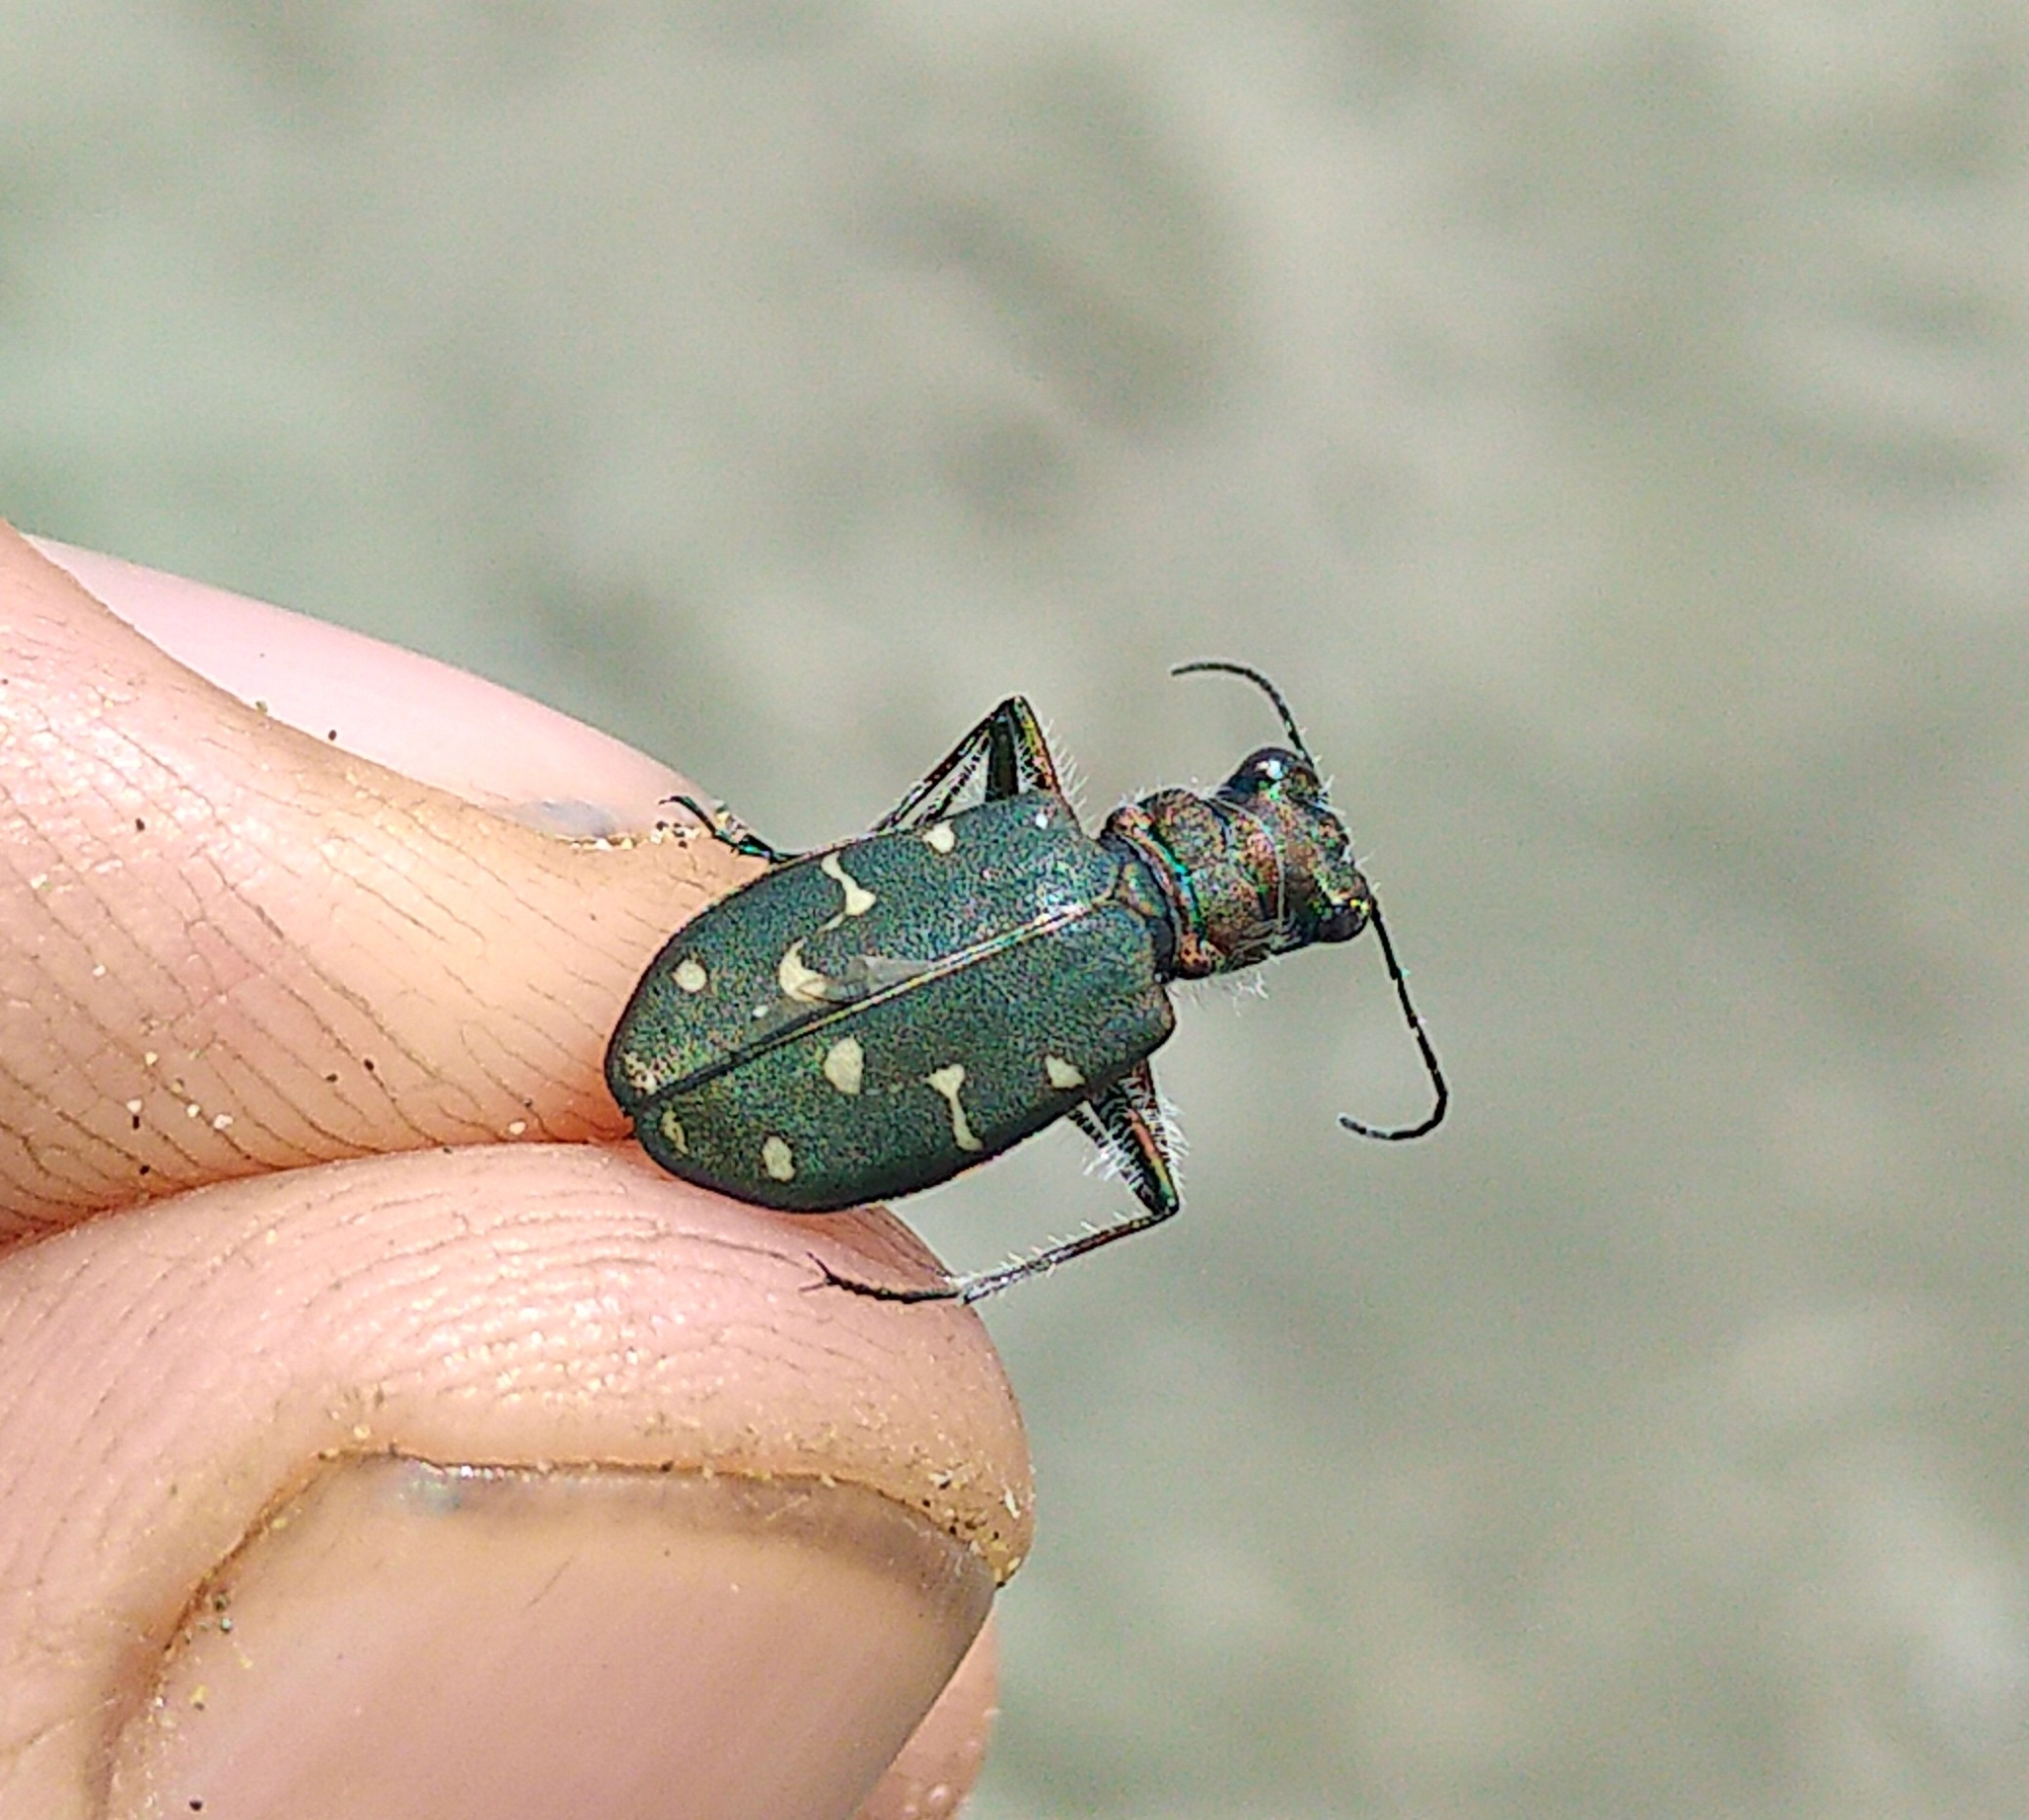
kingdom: Animalia
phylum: Arthropoda
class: Insecta
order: Coleoptera
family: Carabidae
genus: Cicindela
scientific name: Cicindela oregona
